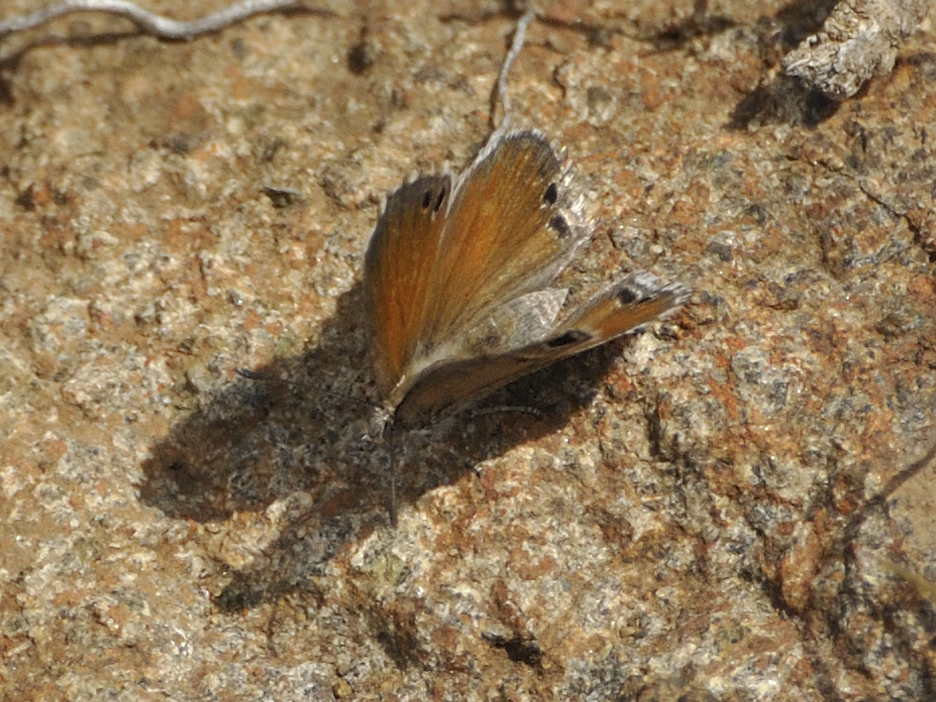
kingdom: Animalia
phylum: Arthropoda
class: Insecta
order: Lepidoptera
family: Lycaenidae
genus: Leptomyrina
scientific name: Leptomyrina lara
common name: Cape black-eye
